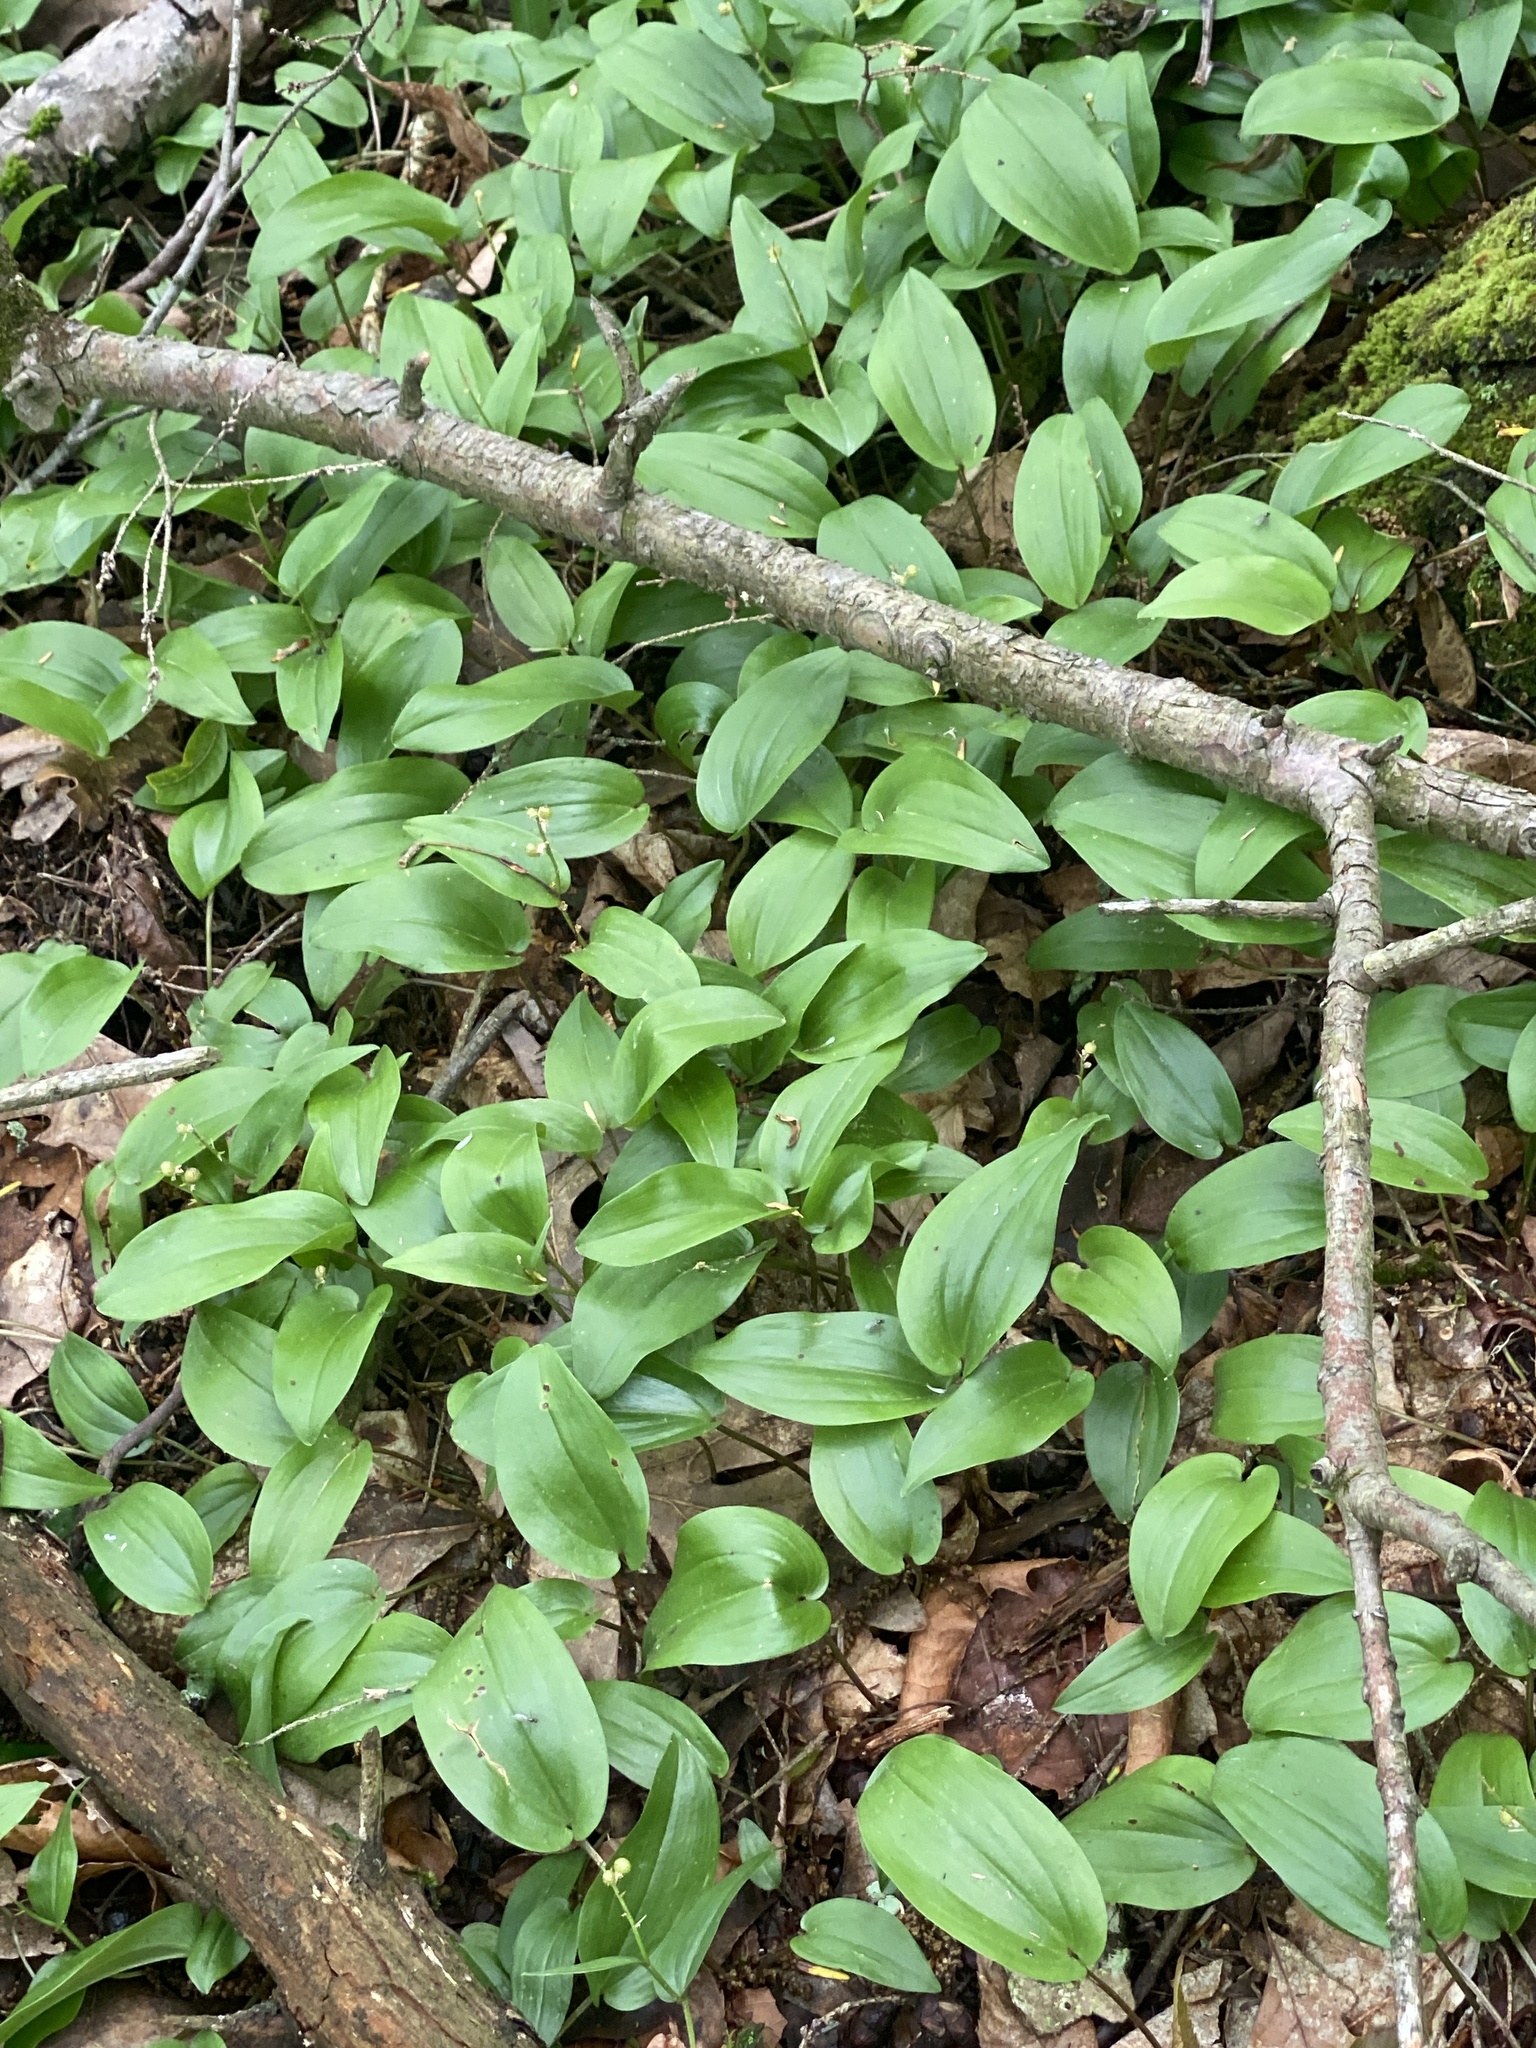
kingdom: Plantae
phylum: Tracheophyta
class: Liliopsida
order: Asparagales
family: Asparagaceae
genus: Maianthemum
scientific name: Maianthemum canadense
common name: False lily-of-the-valley
